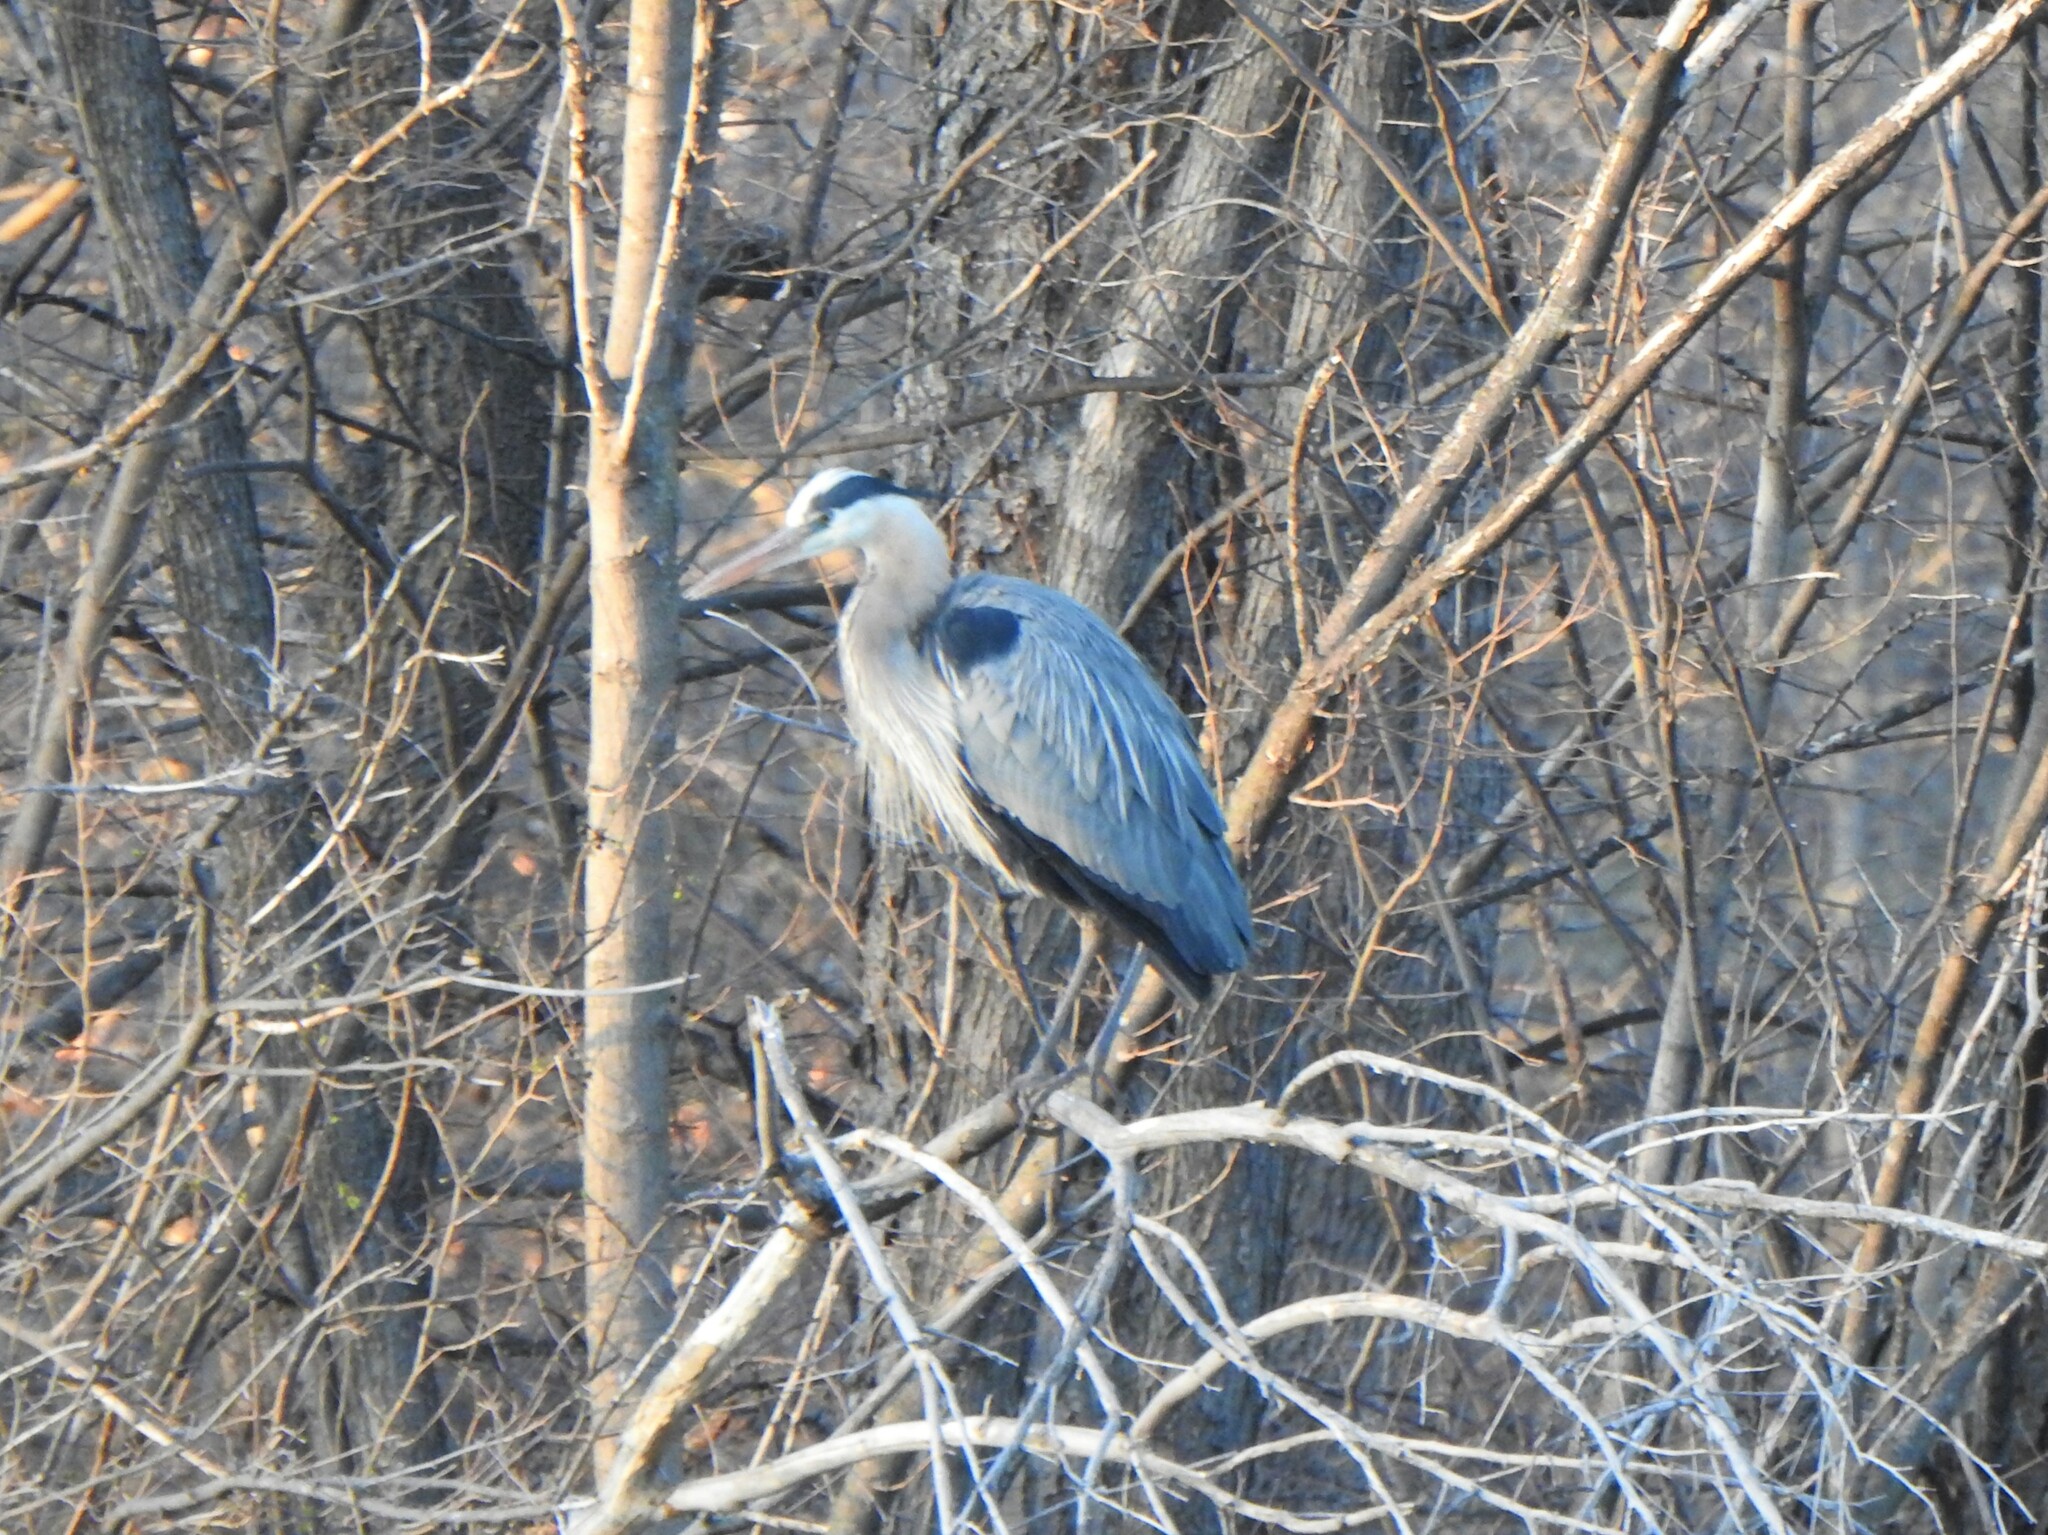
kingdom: Animalia
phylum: Chordata
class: Aves
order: Pelecaniformes
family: Ardeidae
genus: Ardea
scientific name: Ardea herodias
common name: Great blue heron
